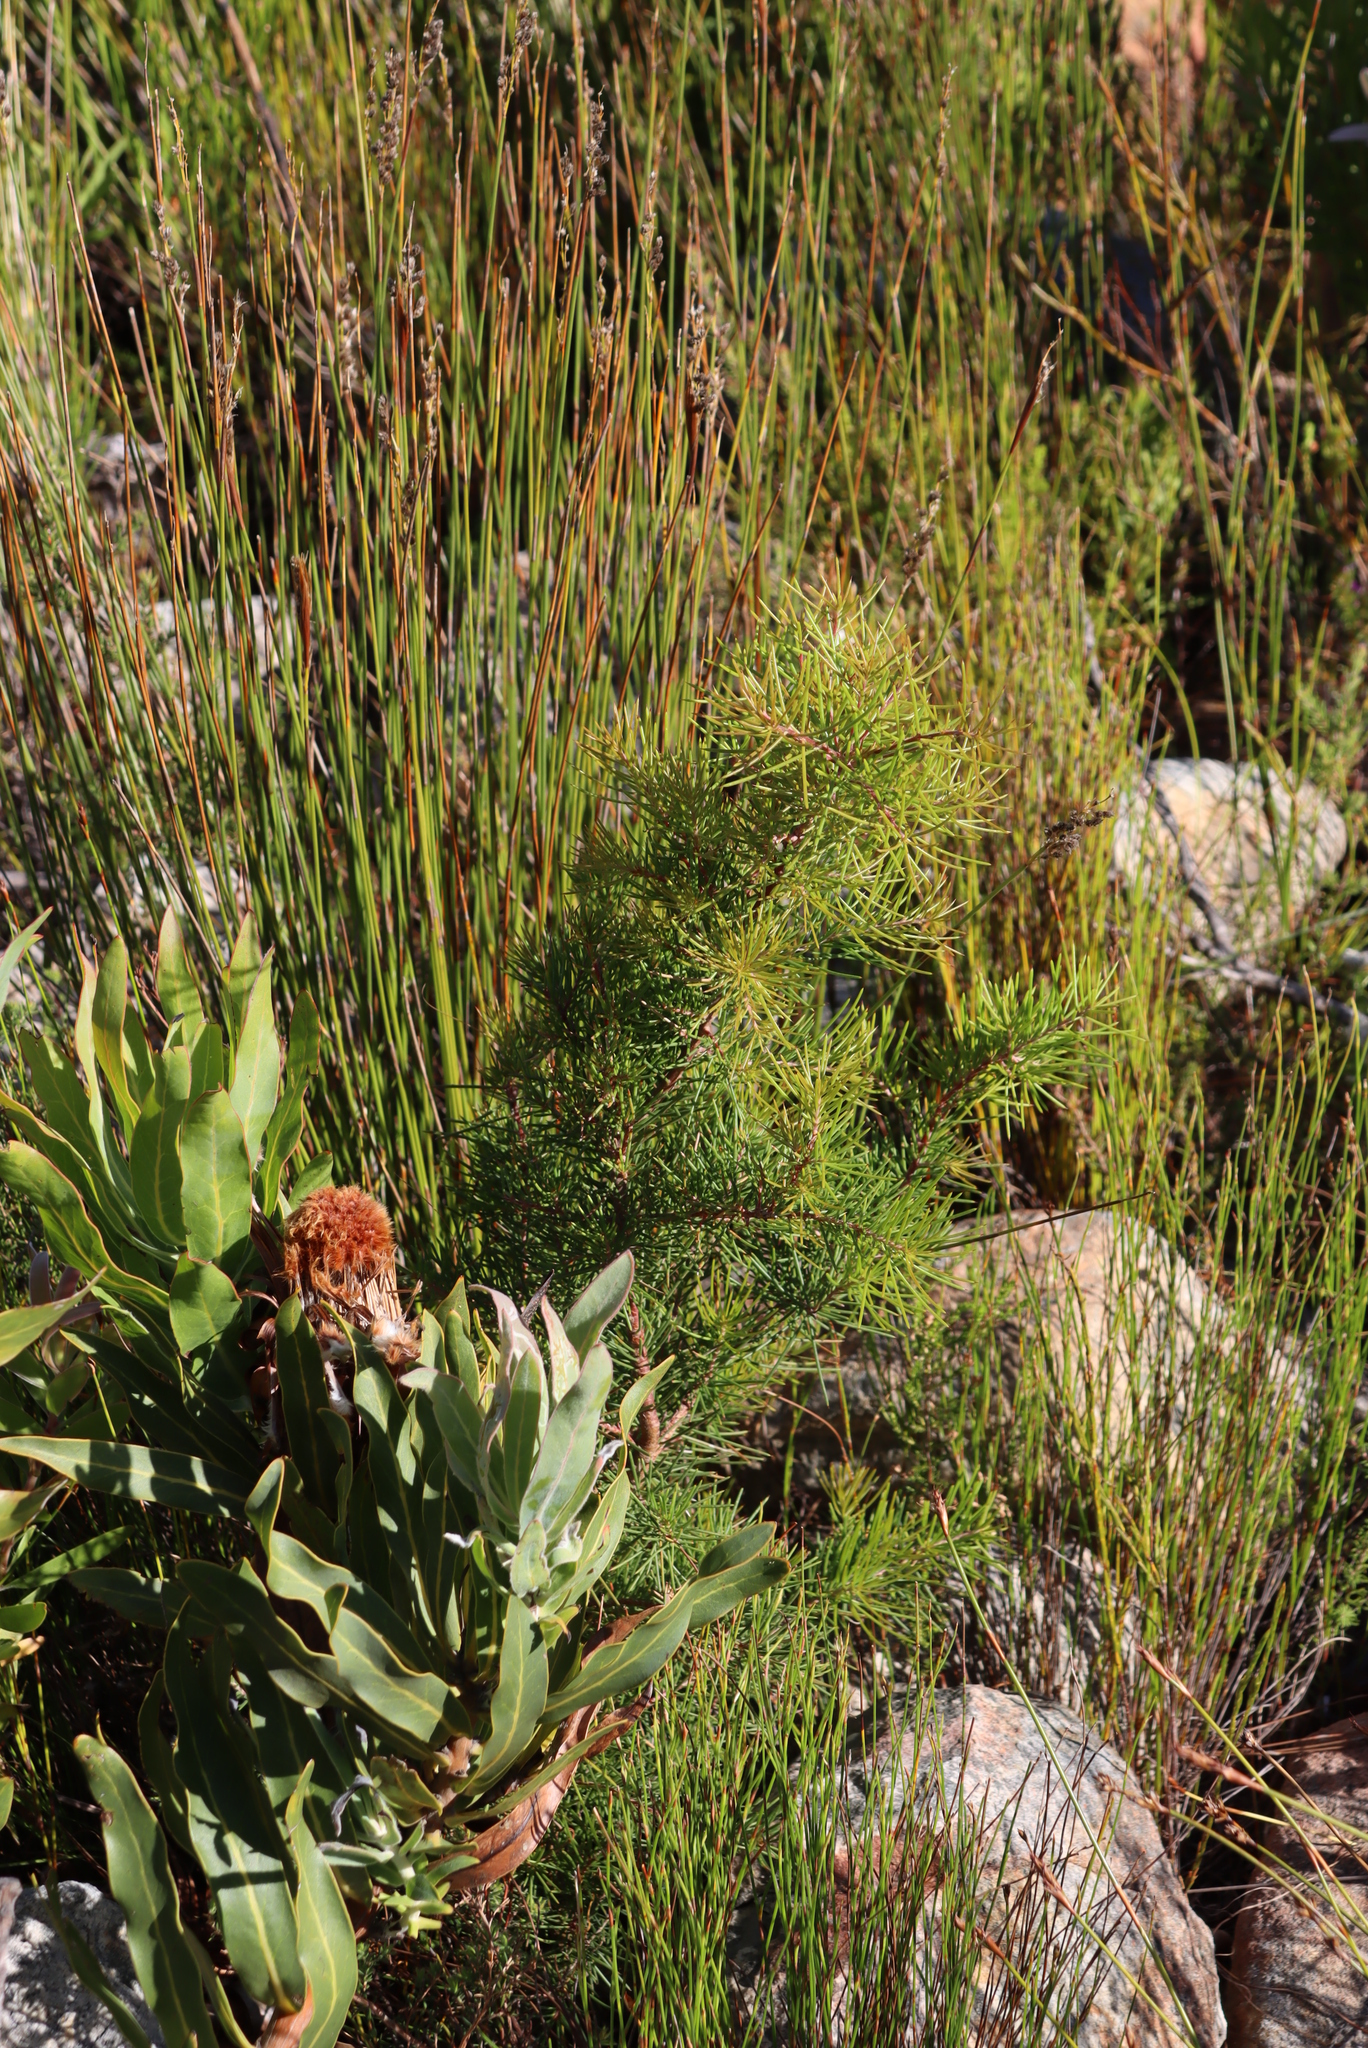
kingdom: Plantae
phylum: Tracheophyta
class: Magnoliopsida
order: Proteales
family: Proteaceae
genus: Hakea
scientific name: Hakea sericea
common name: Needle bush
